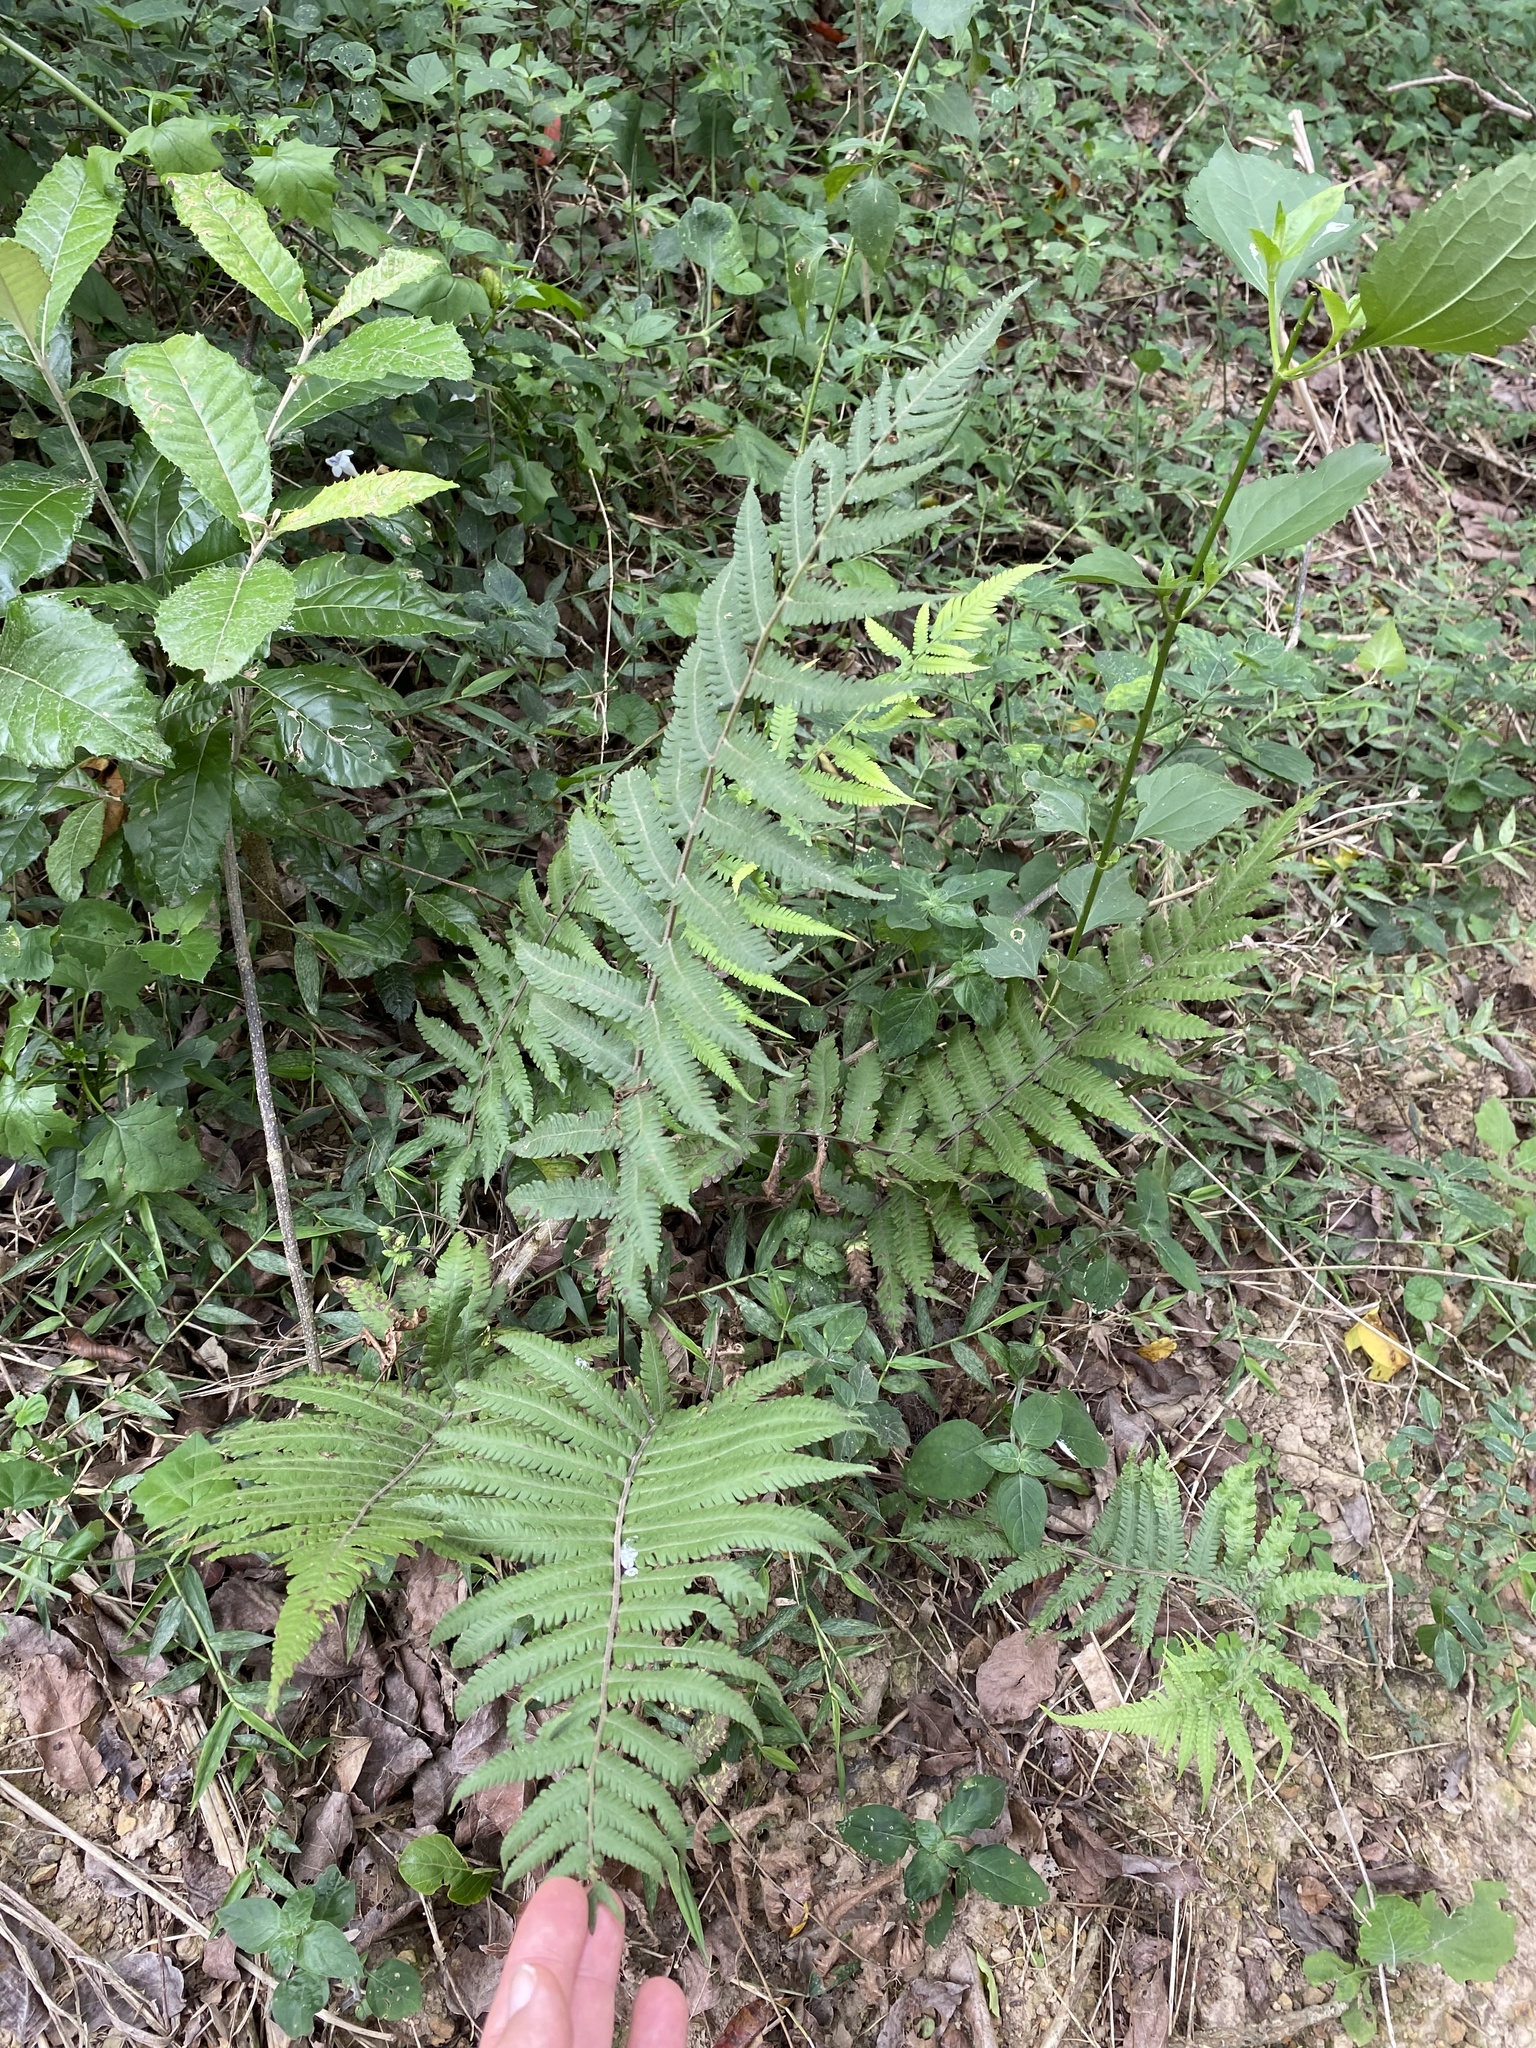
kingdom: Plantae
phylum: Tracheophyta
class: Polypodiopsida
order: Polypodiales
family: Thelypteridaceae
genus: Christella
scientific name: Christella dentata
